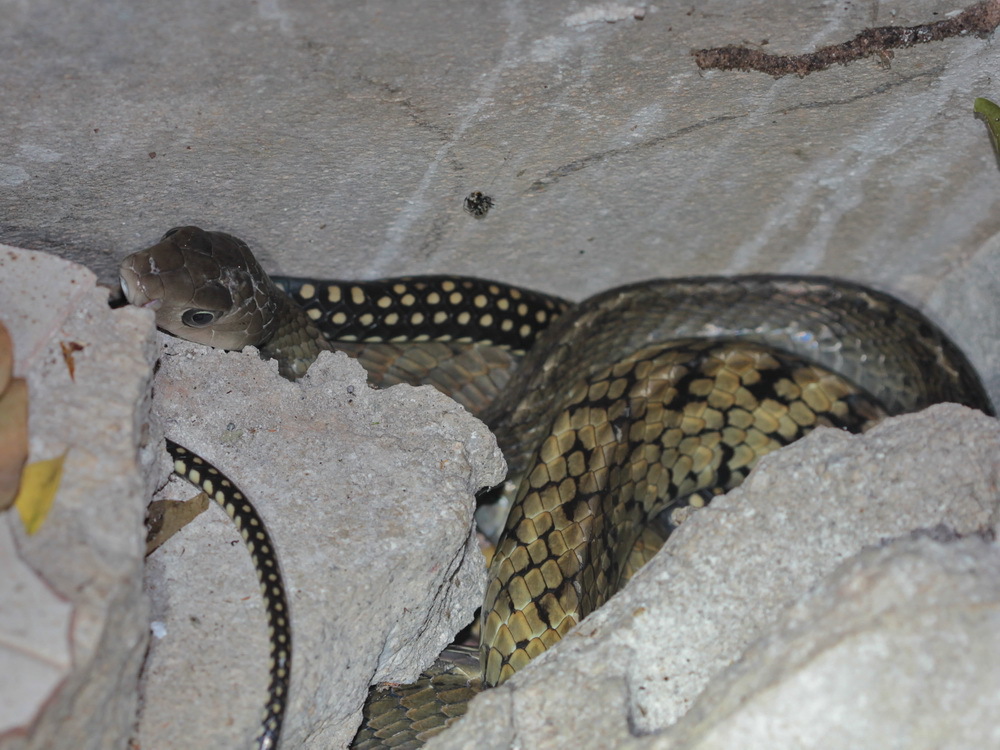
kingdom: Animalia
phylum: Chordata
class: Squamata
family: Colubridae
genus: Ptyas
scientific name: Ptyas carinata
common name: Keeled rat snake
